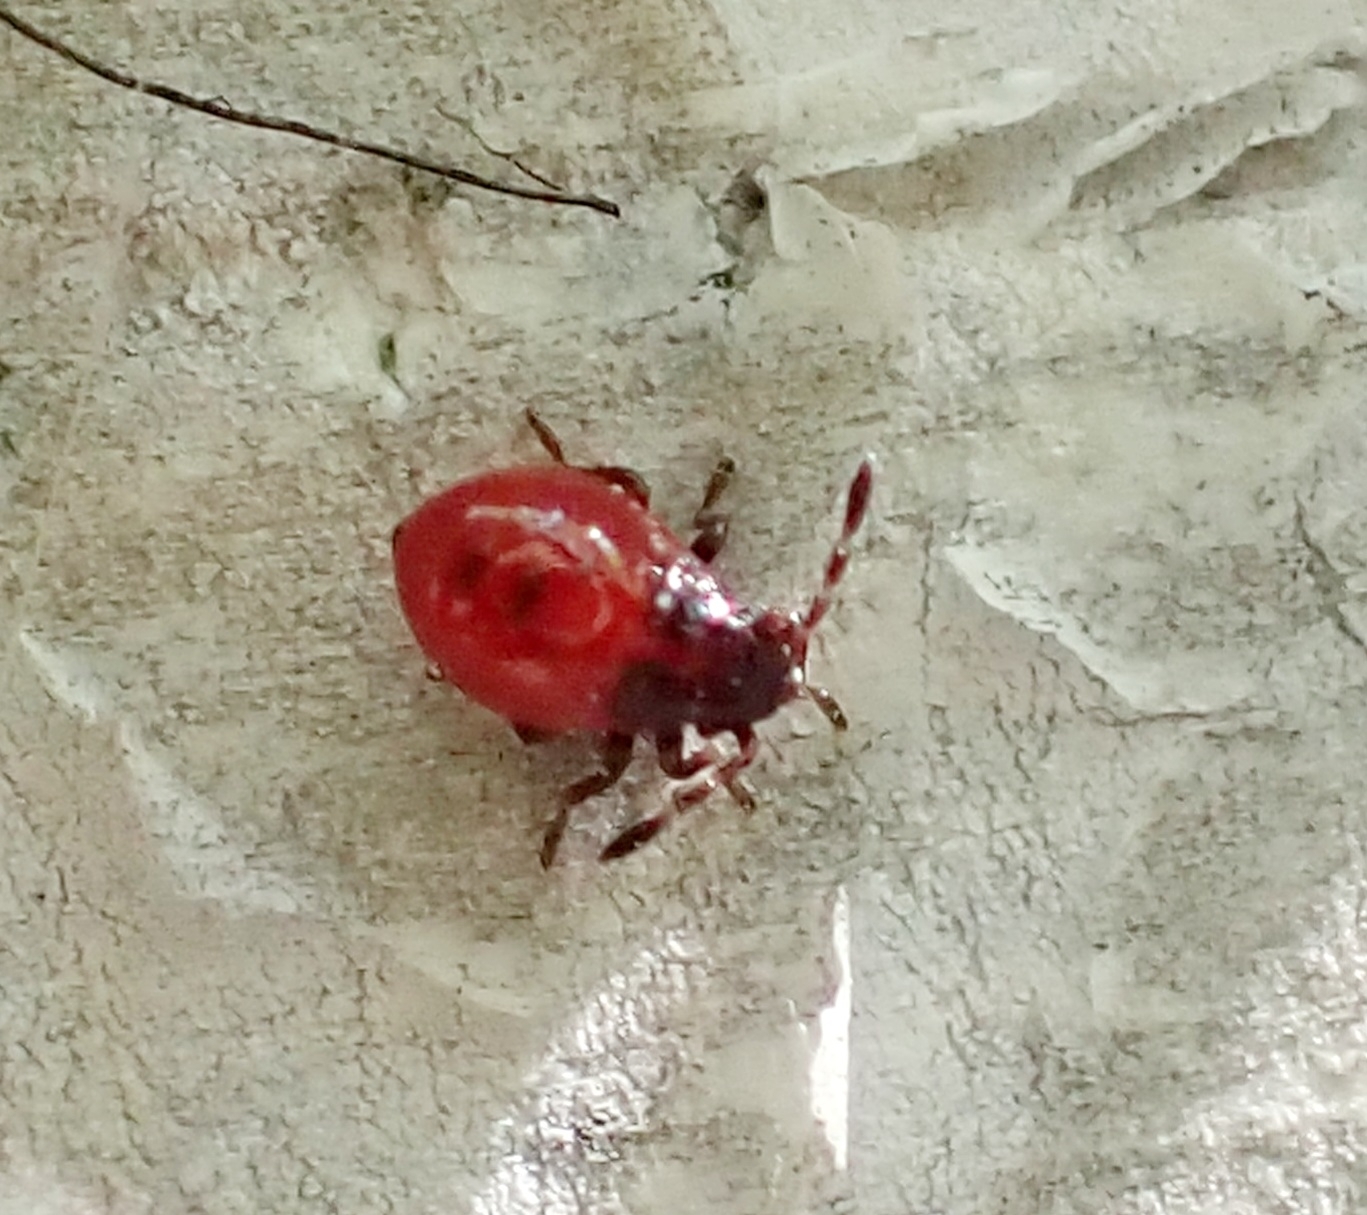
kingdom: Animalia
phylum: Arthropoda
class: Insecta
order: Hemiptera
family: Acanthosomatidae
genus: Elasmucha
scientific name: Elasmucha ferrugata
